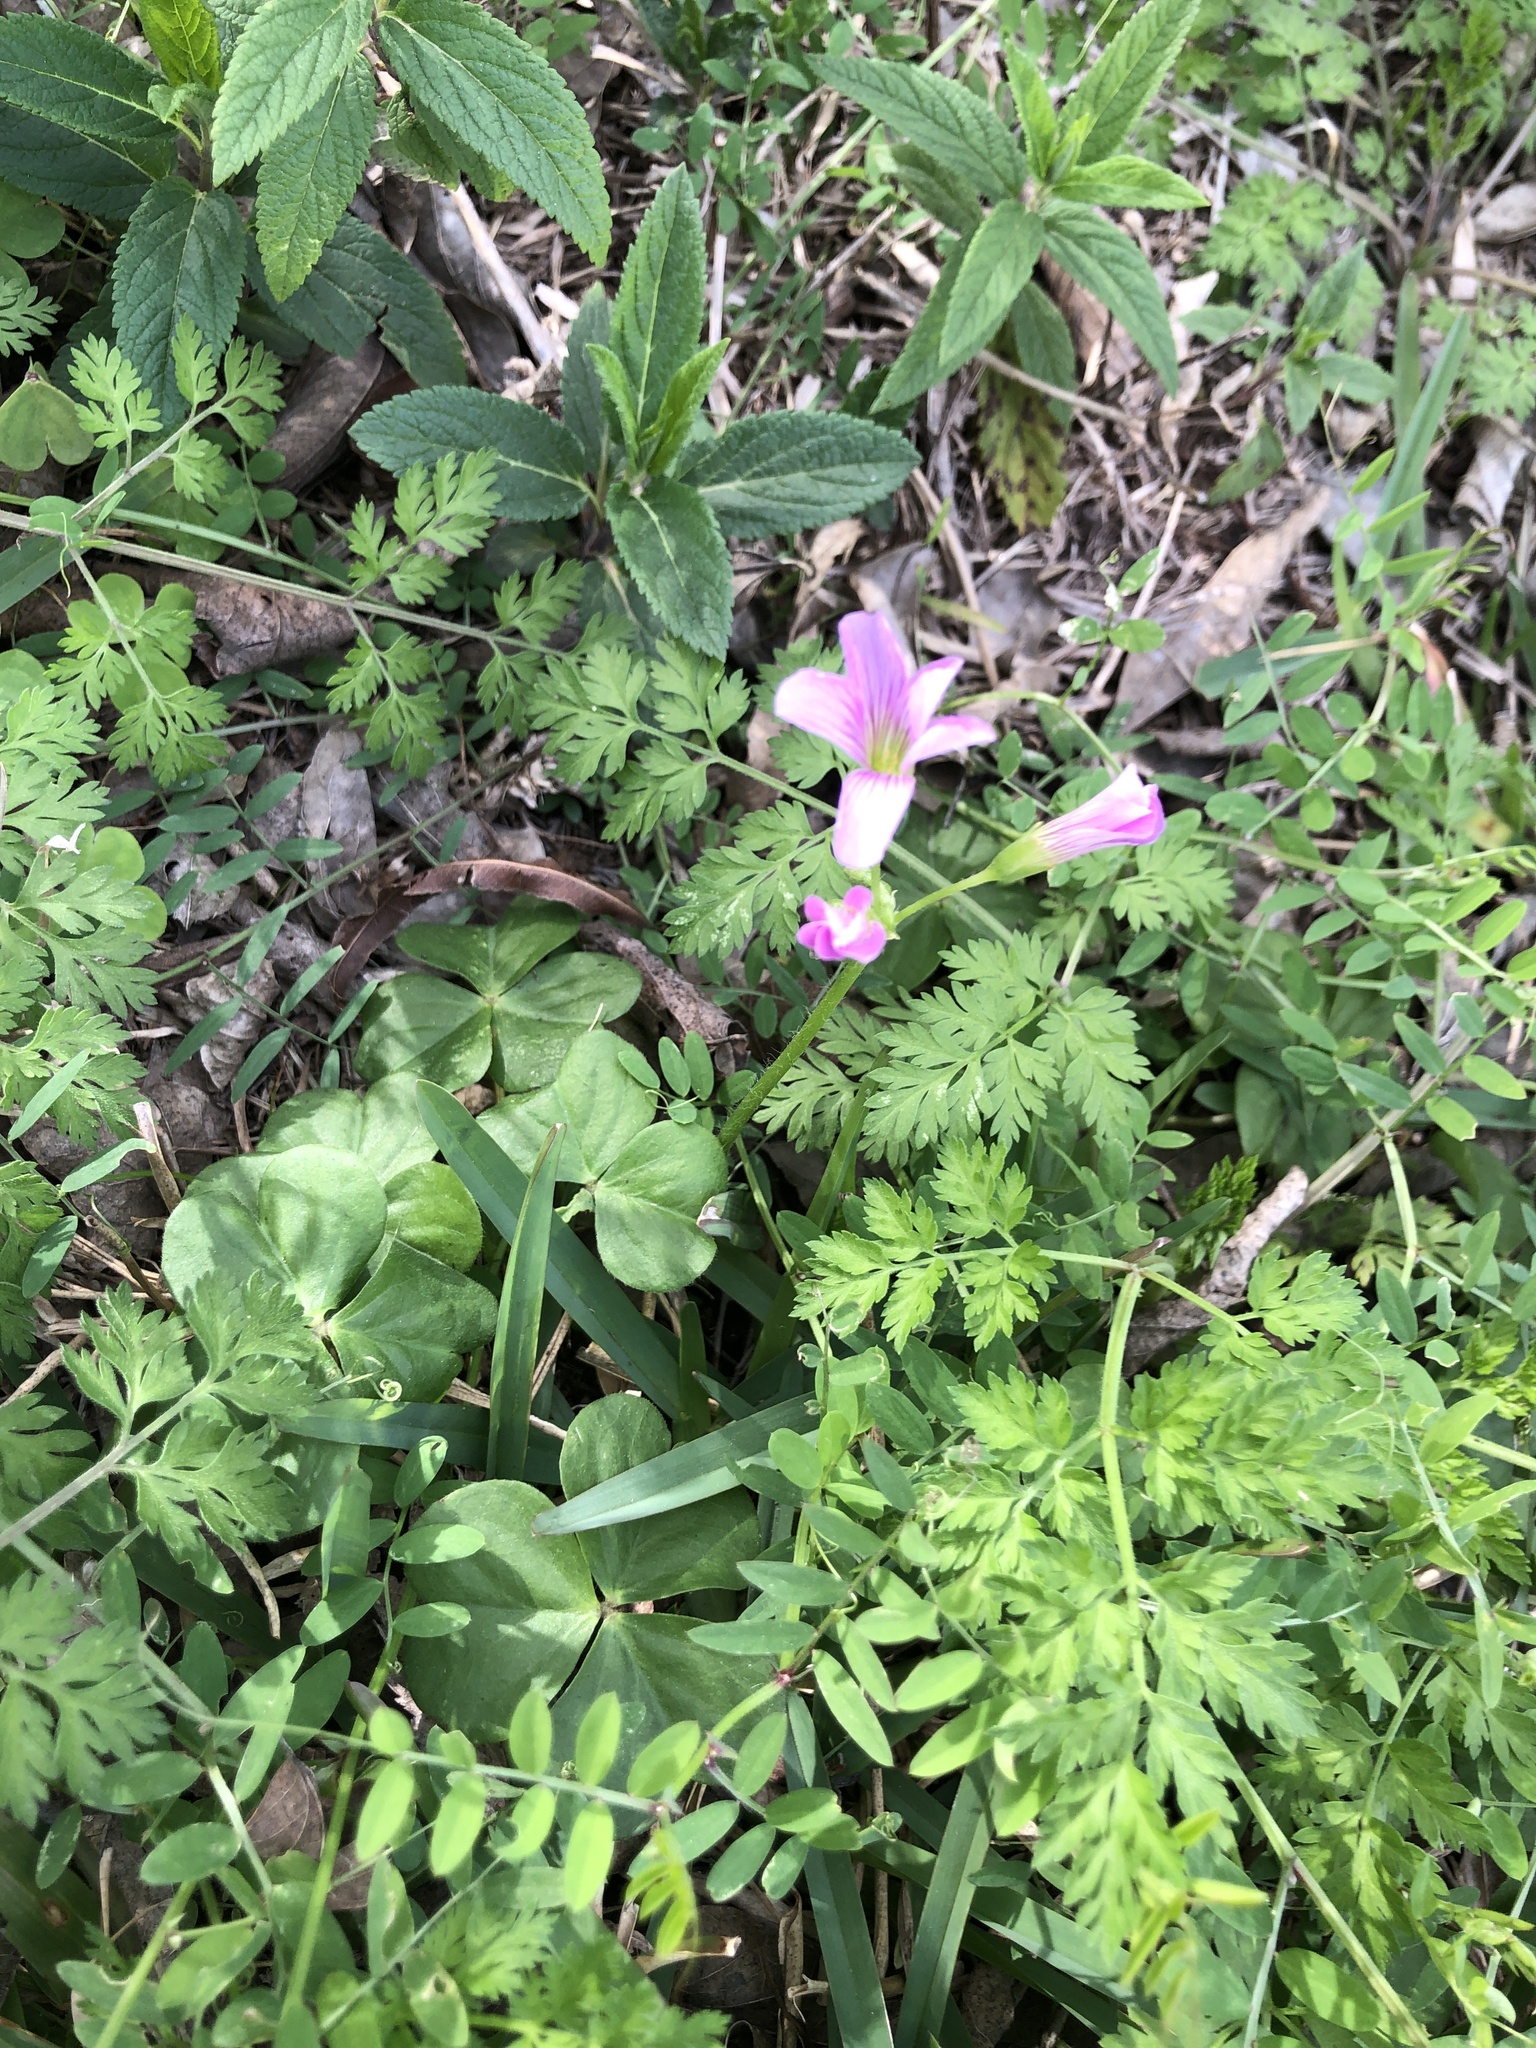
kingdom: Plantae
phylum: Tracheophyta
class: Magnoliopsida
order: Oxalidales
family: Oxalidaceae
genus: Oxalis
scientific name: Oxalis debilis
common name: Large-flowered pink-sorrel
